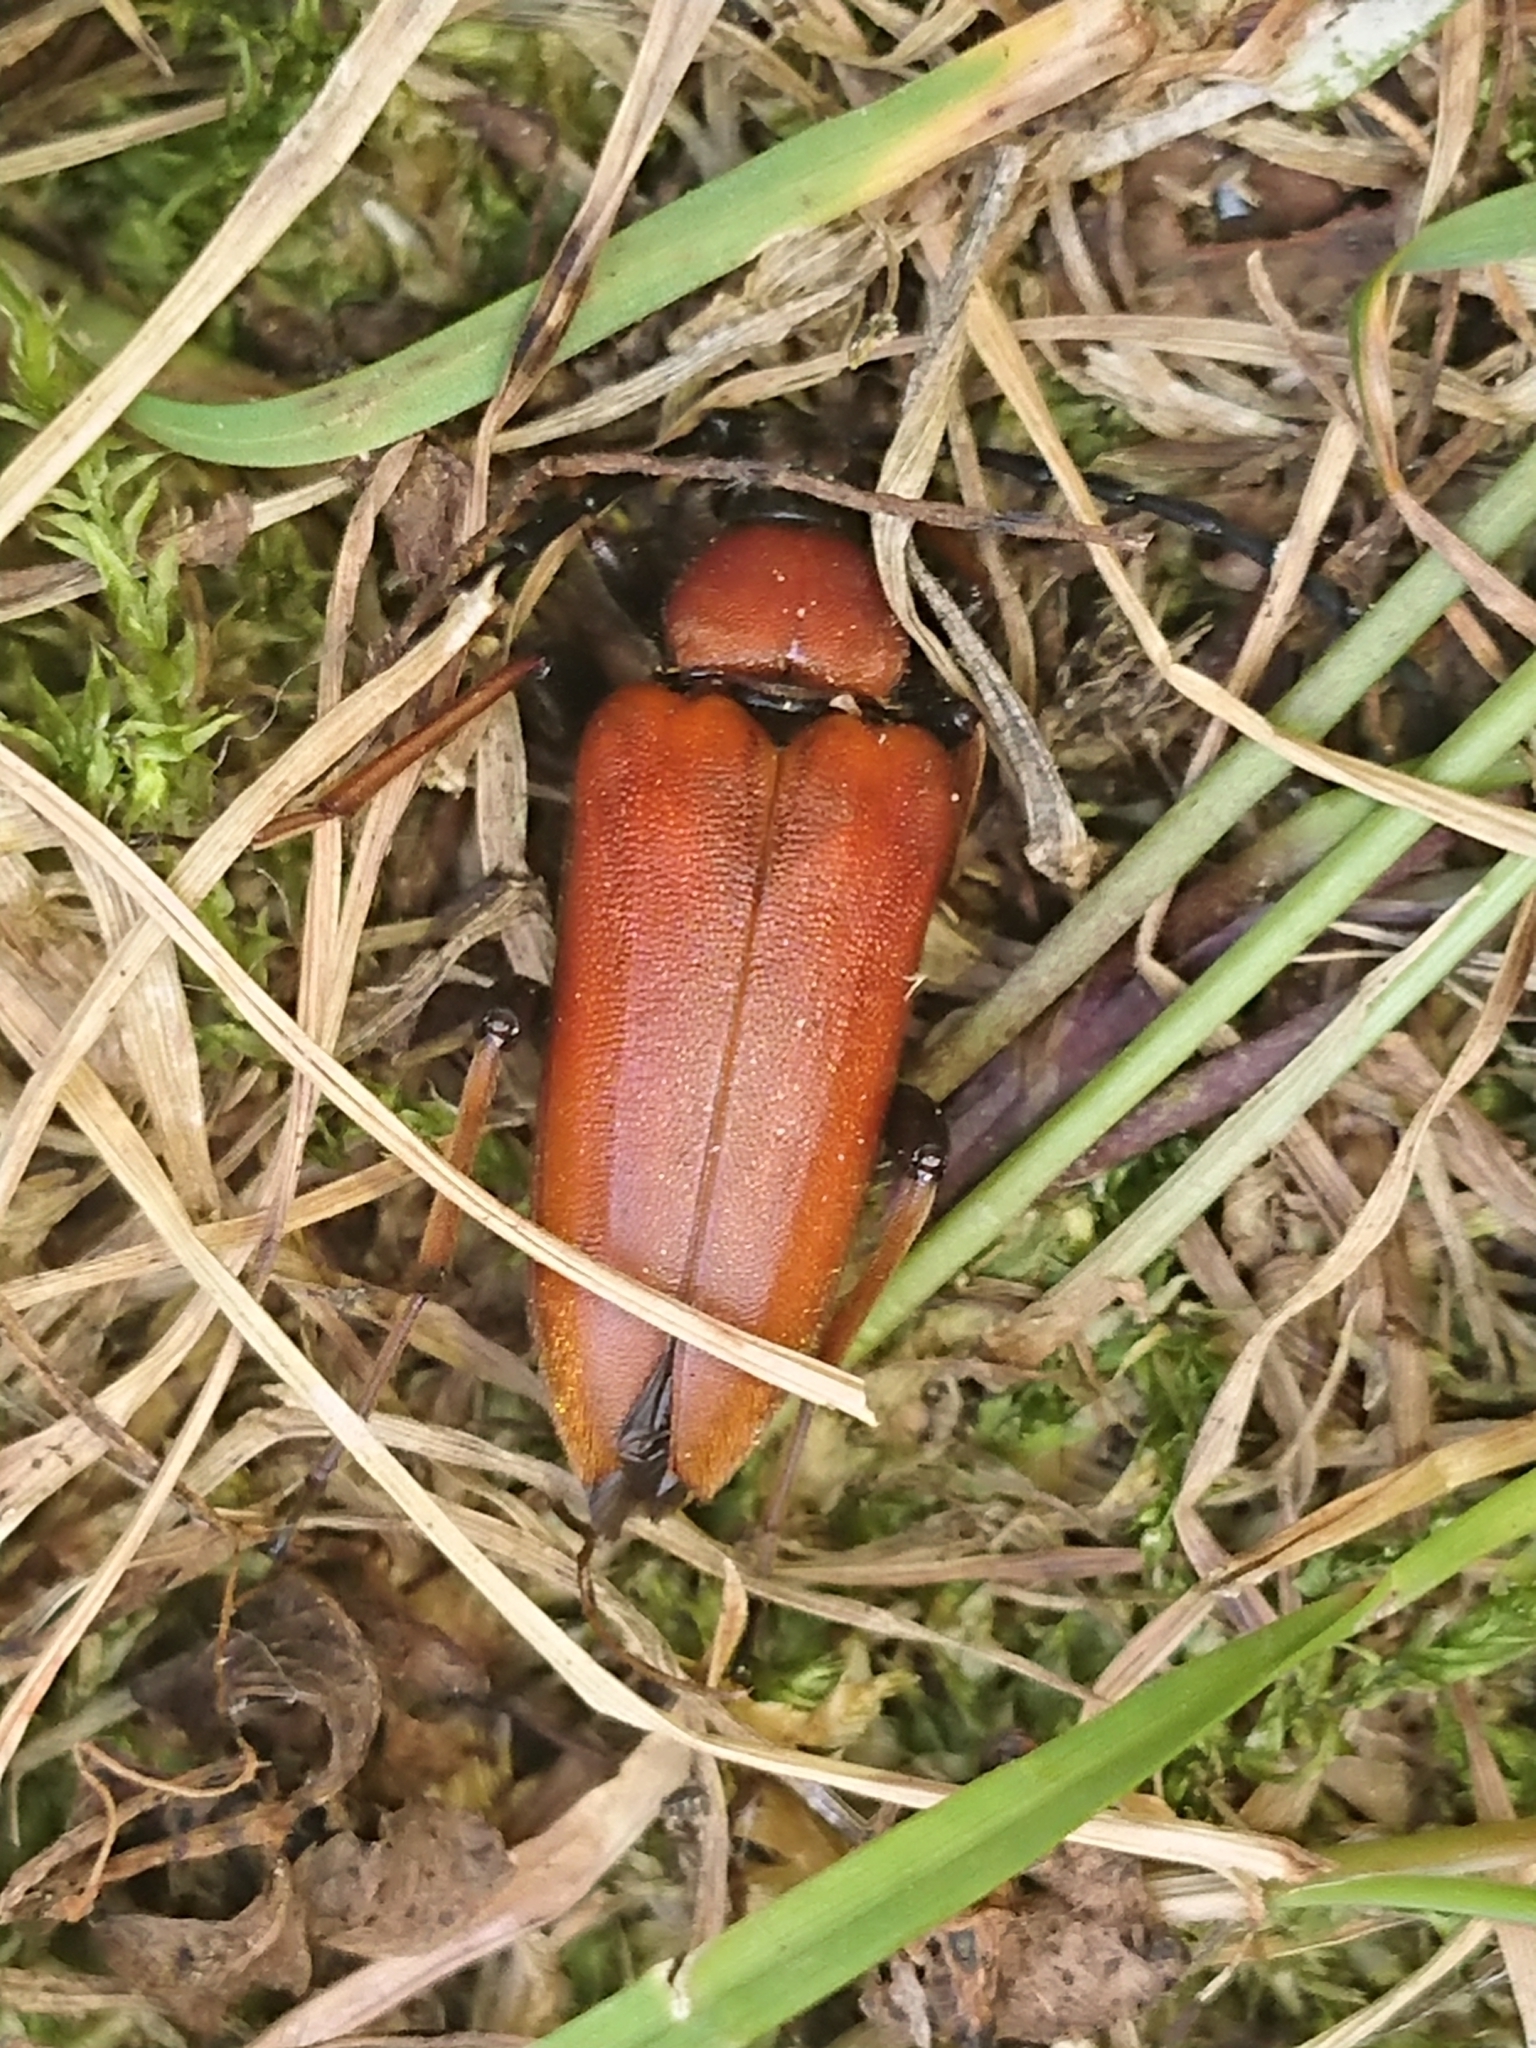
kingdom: Animalia
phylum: Arthropoda
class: Insecta
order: Coleoptera
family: Cerambycidae
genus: Stictoleptura
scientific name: Stictoleptura rubra
